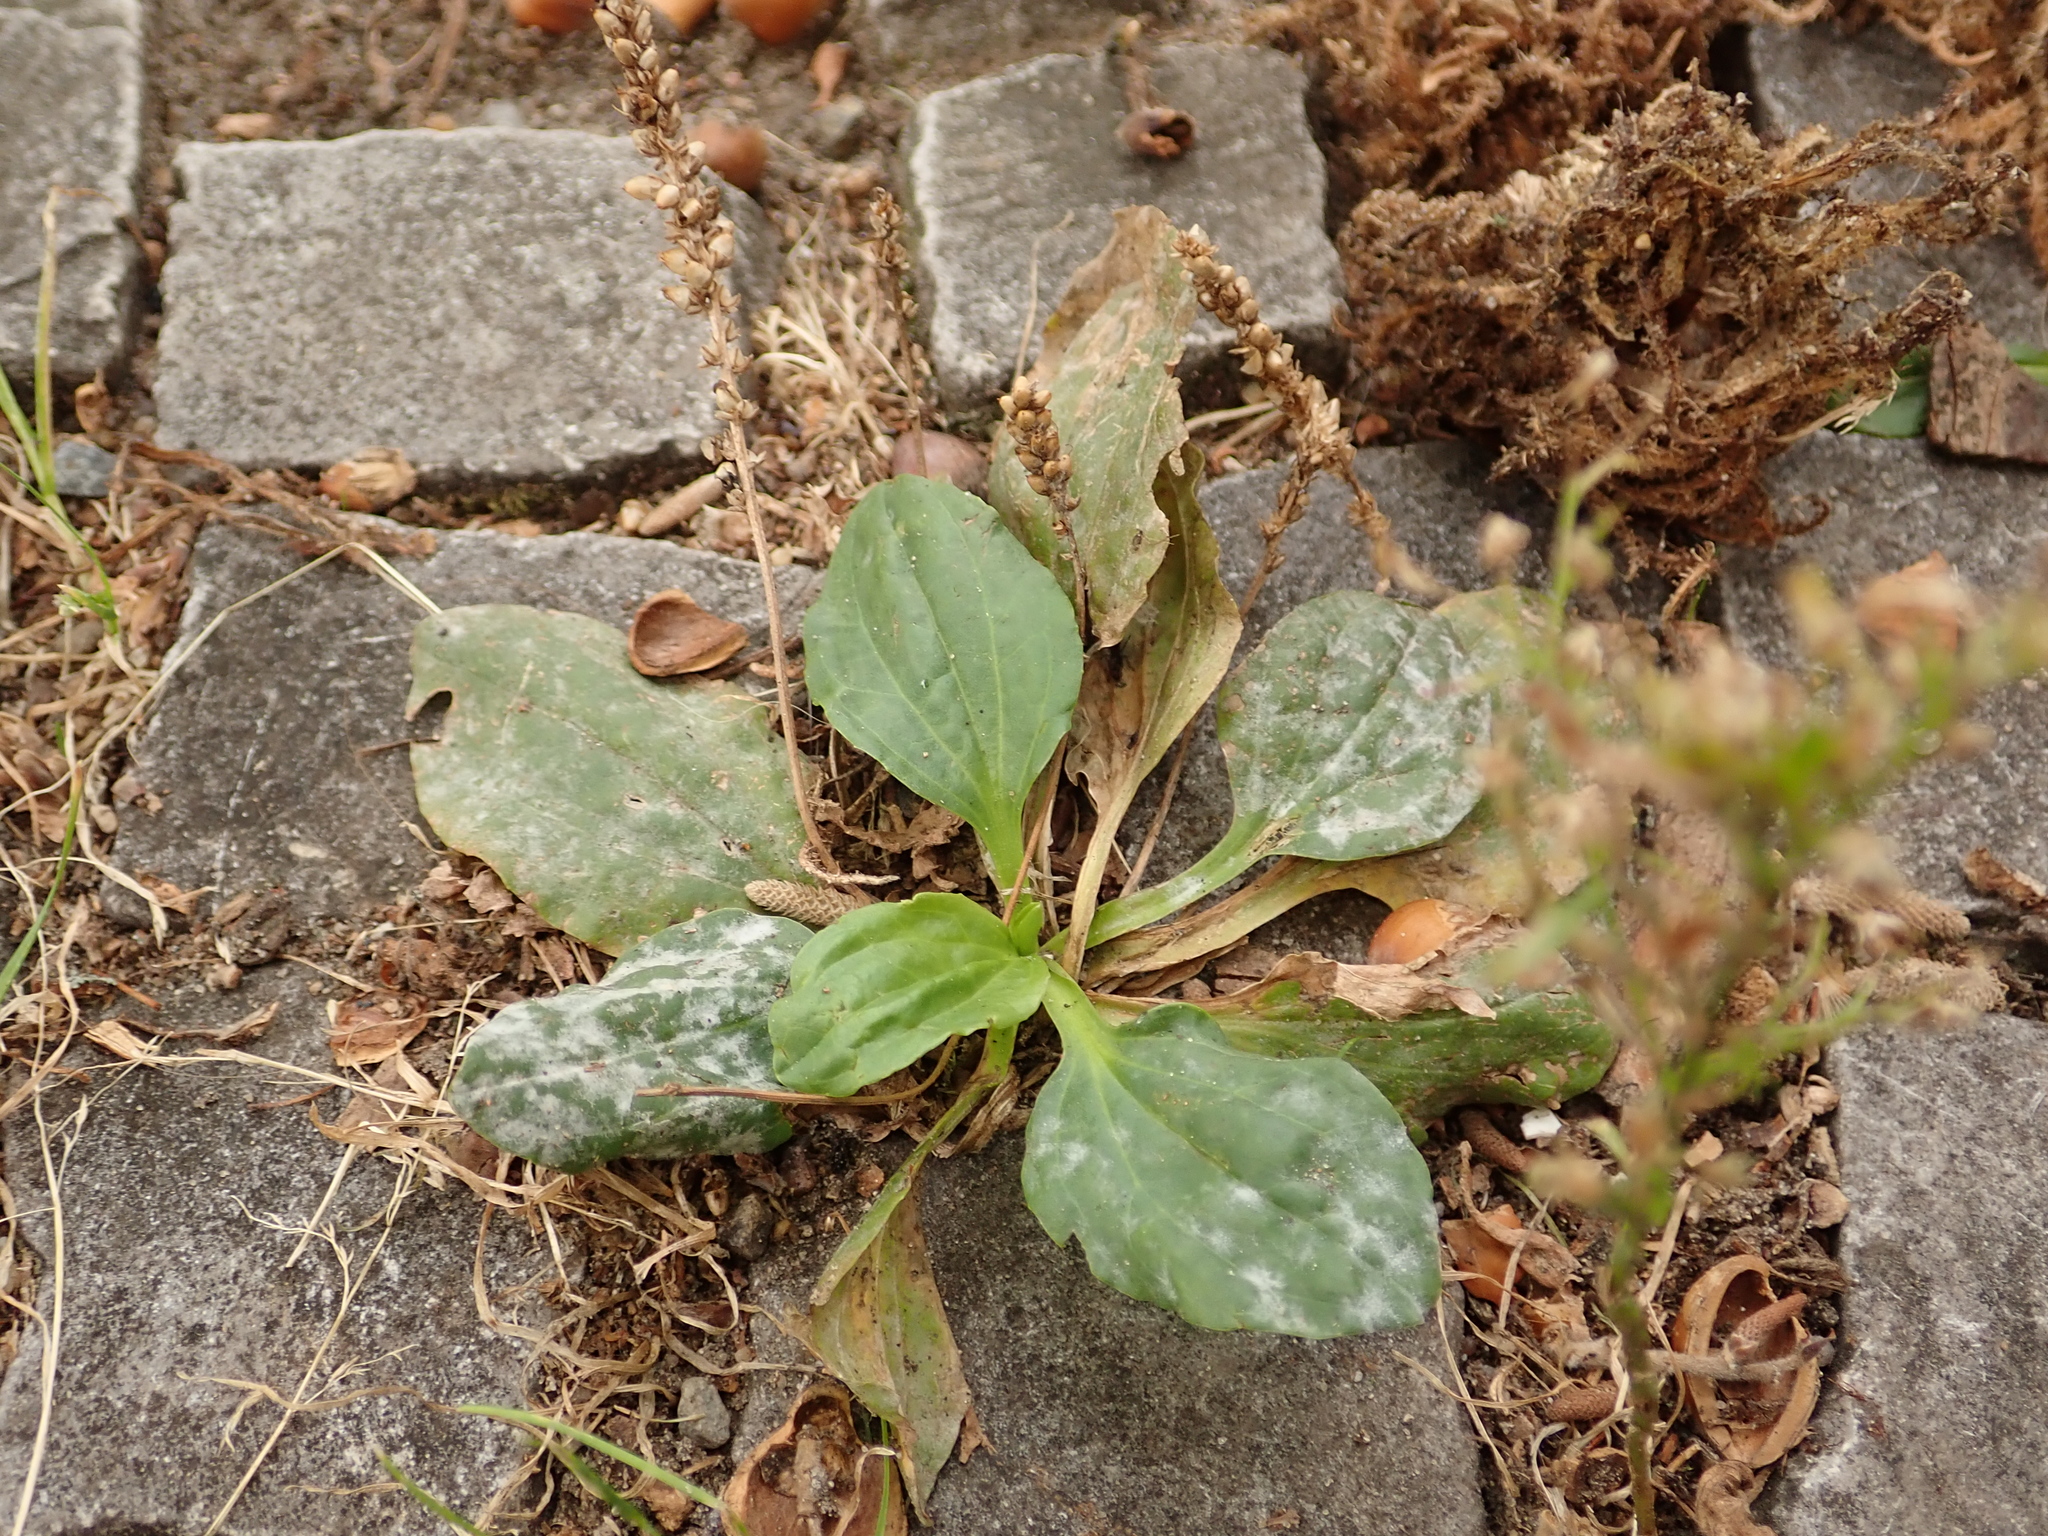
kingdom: Plantae
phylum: Tracheophyta
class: Magnoliopsida
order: Lamiales
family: Plantaginaceae
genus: Plantago
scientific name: Plantago major
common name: Common plantain
